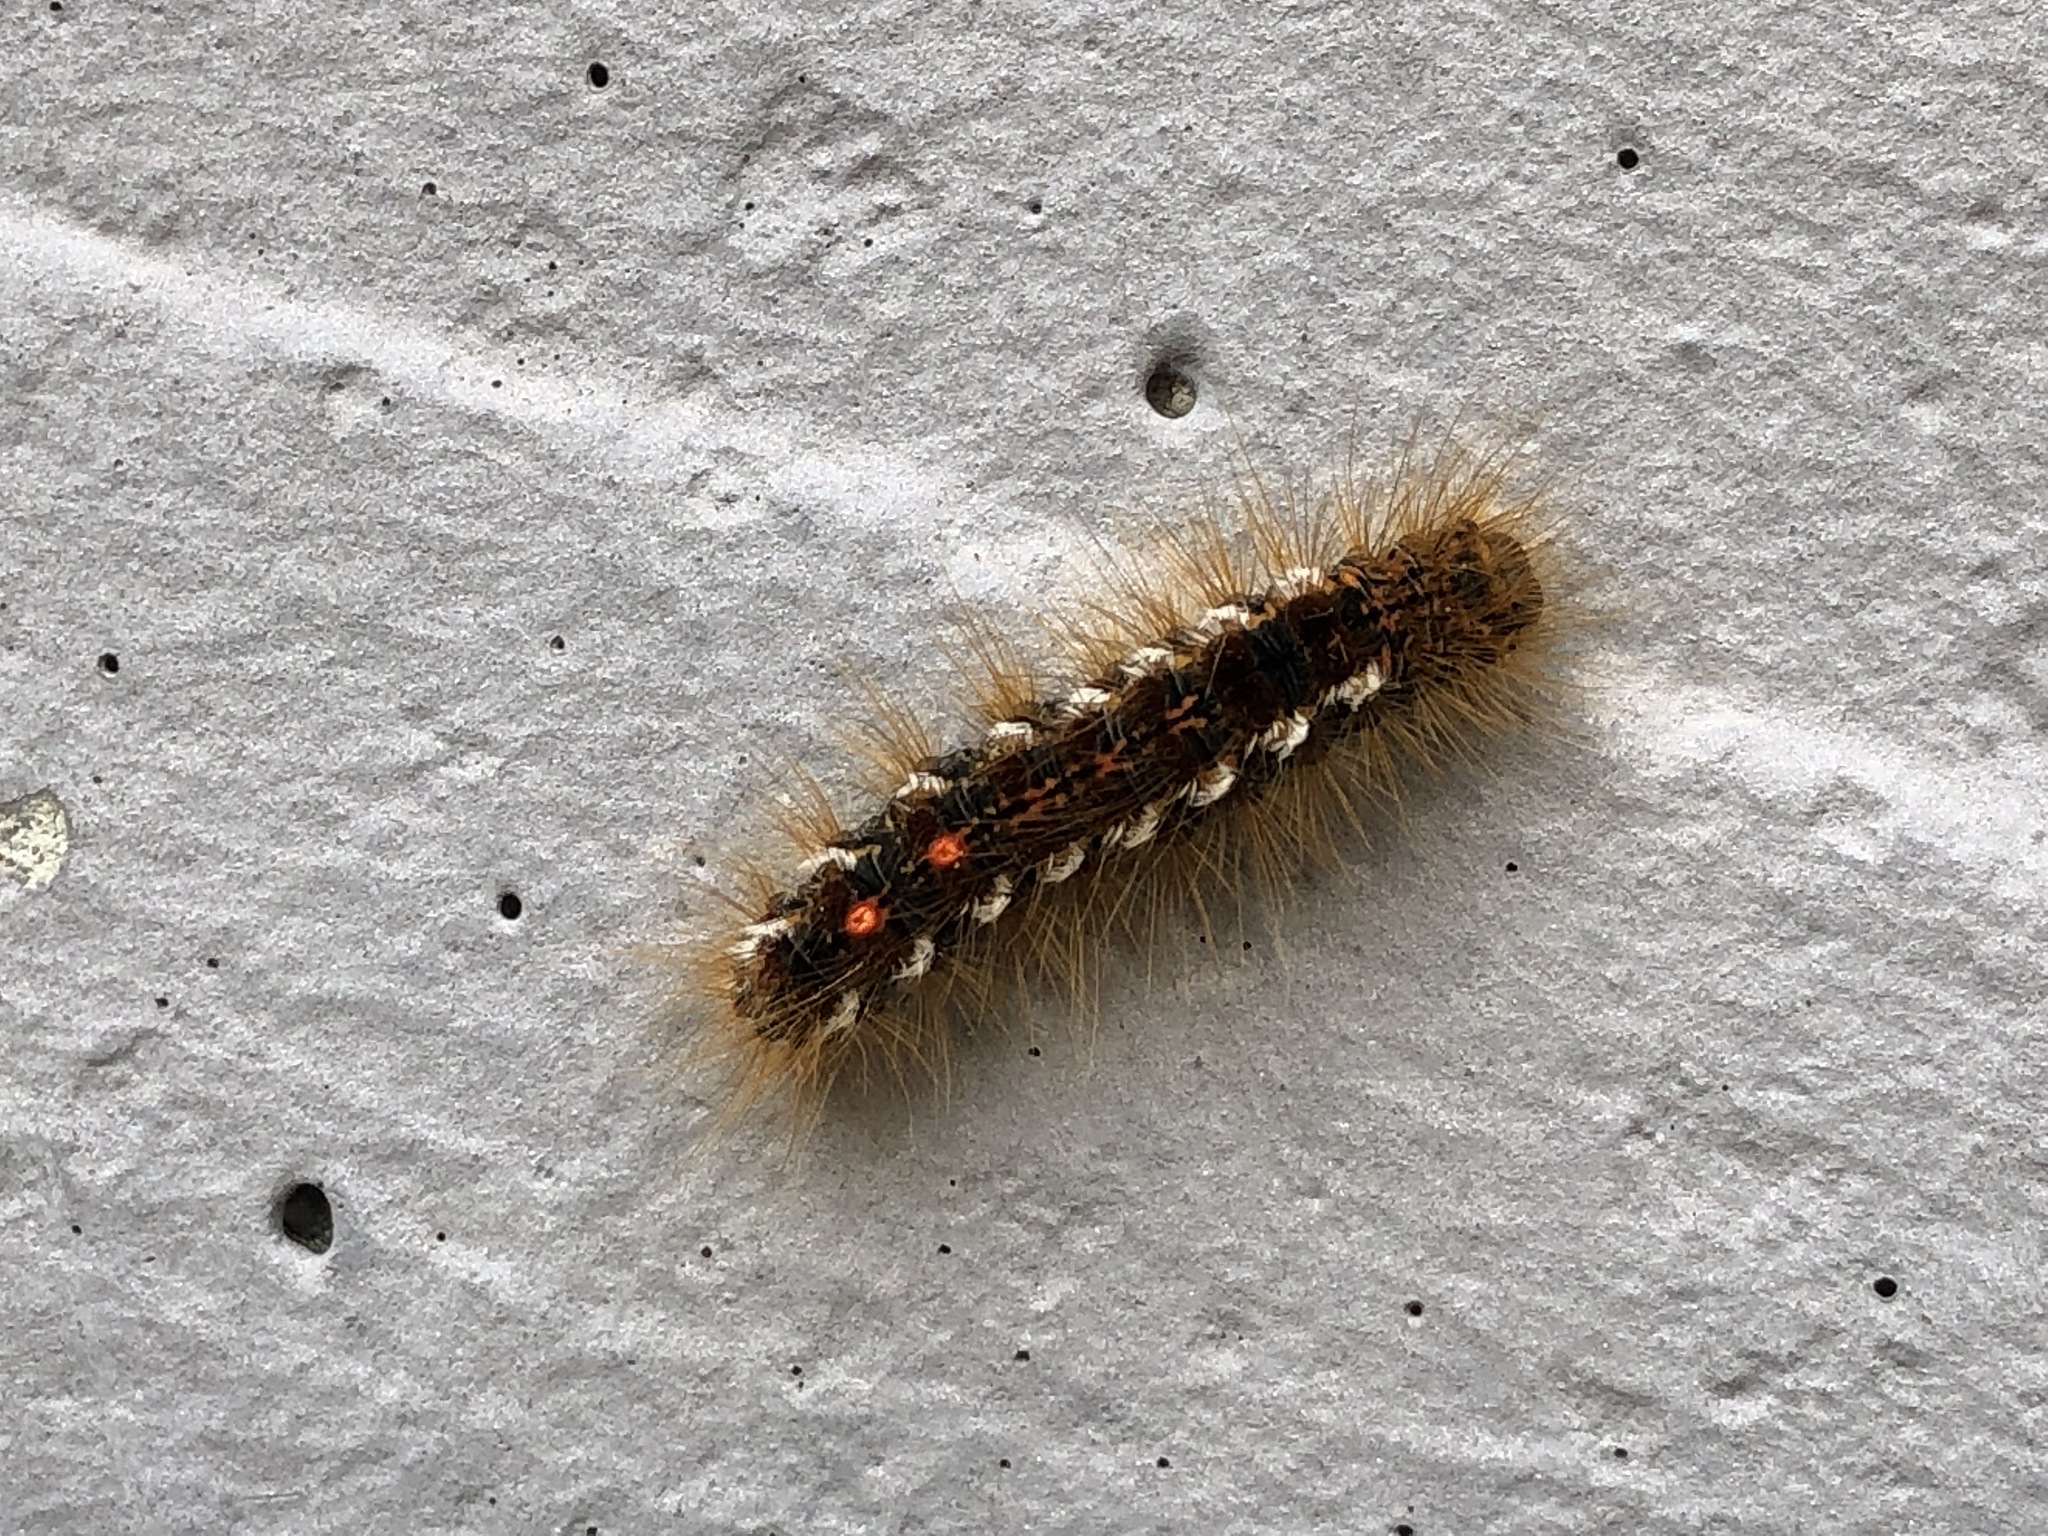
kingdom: Animalia
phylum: Arthropoda
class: Insecta
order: Lepidoptera
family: Erebidae
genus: Euproctis
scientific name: Euproctis chrysorrhoea
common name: Brown-tail
